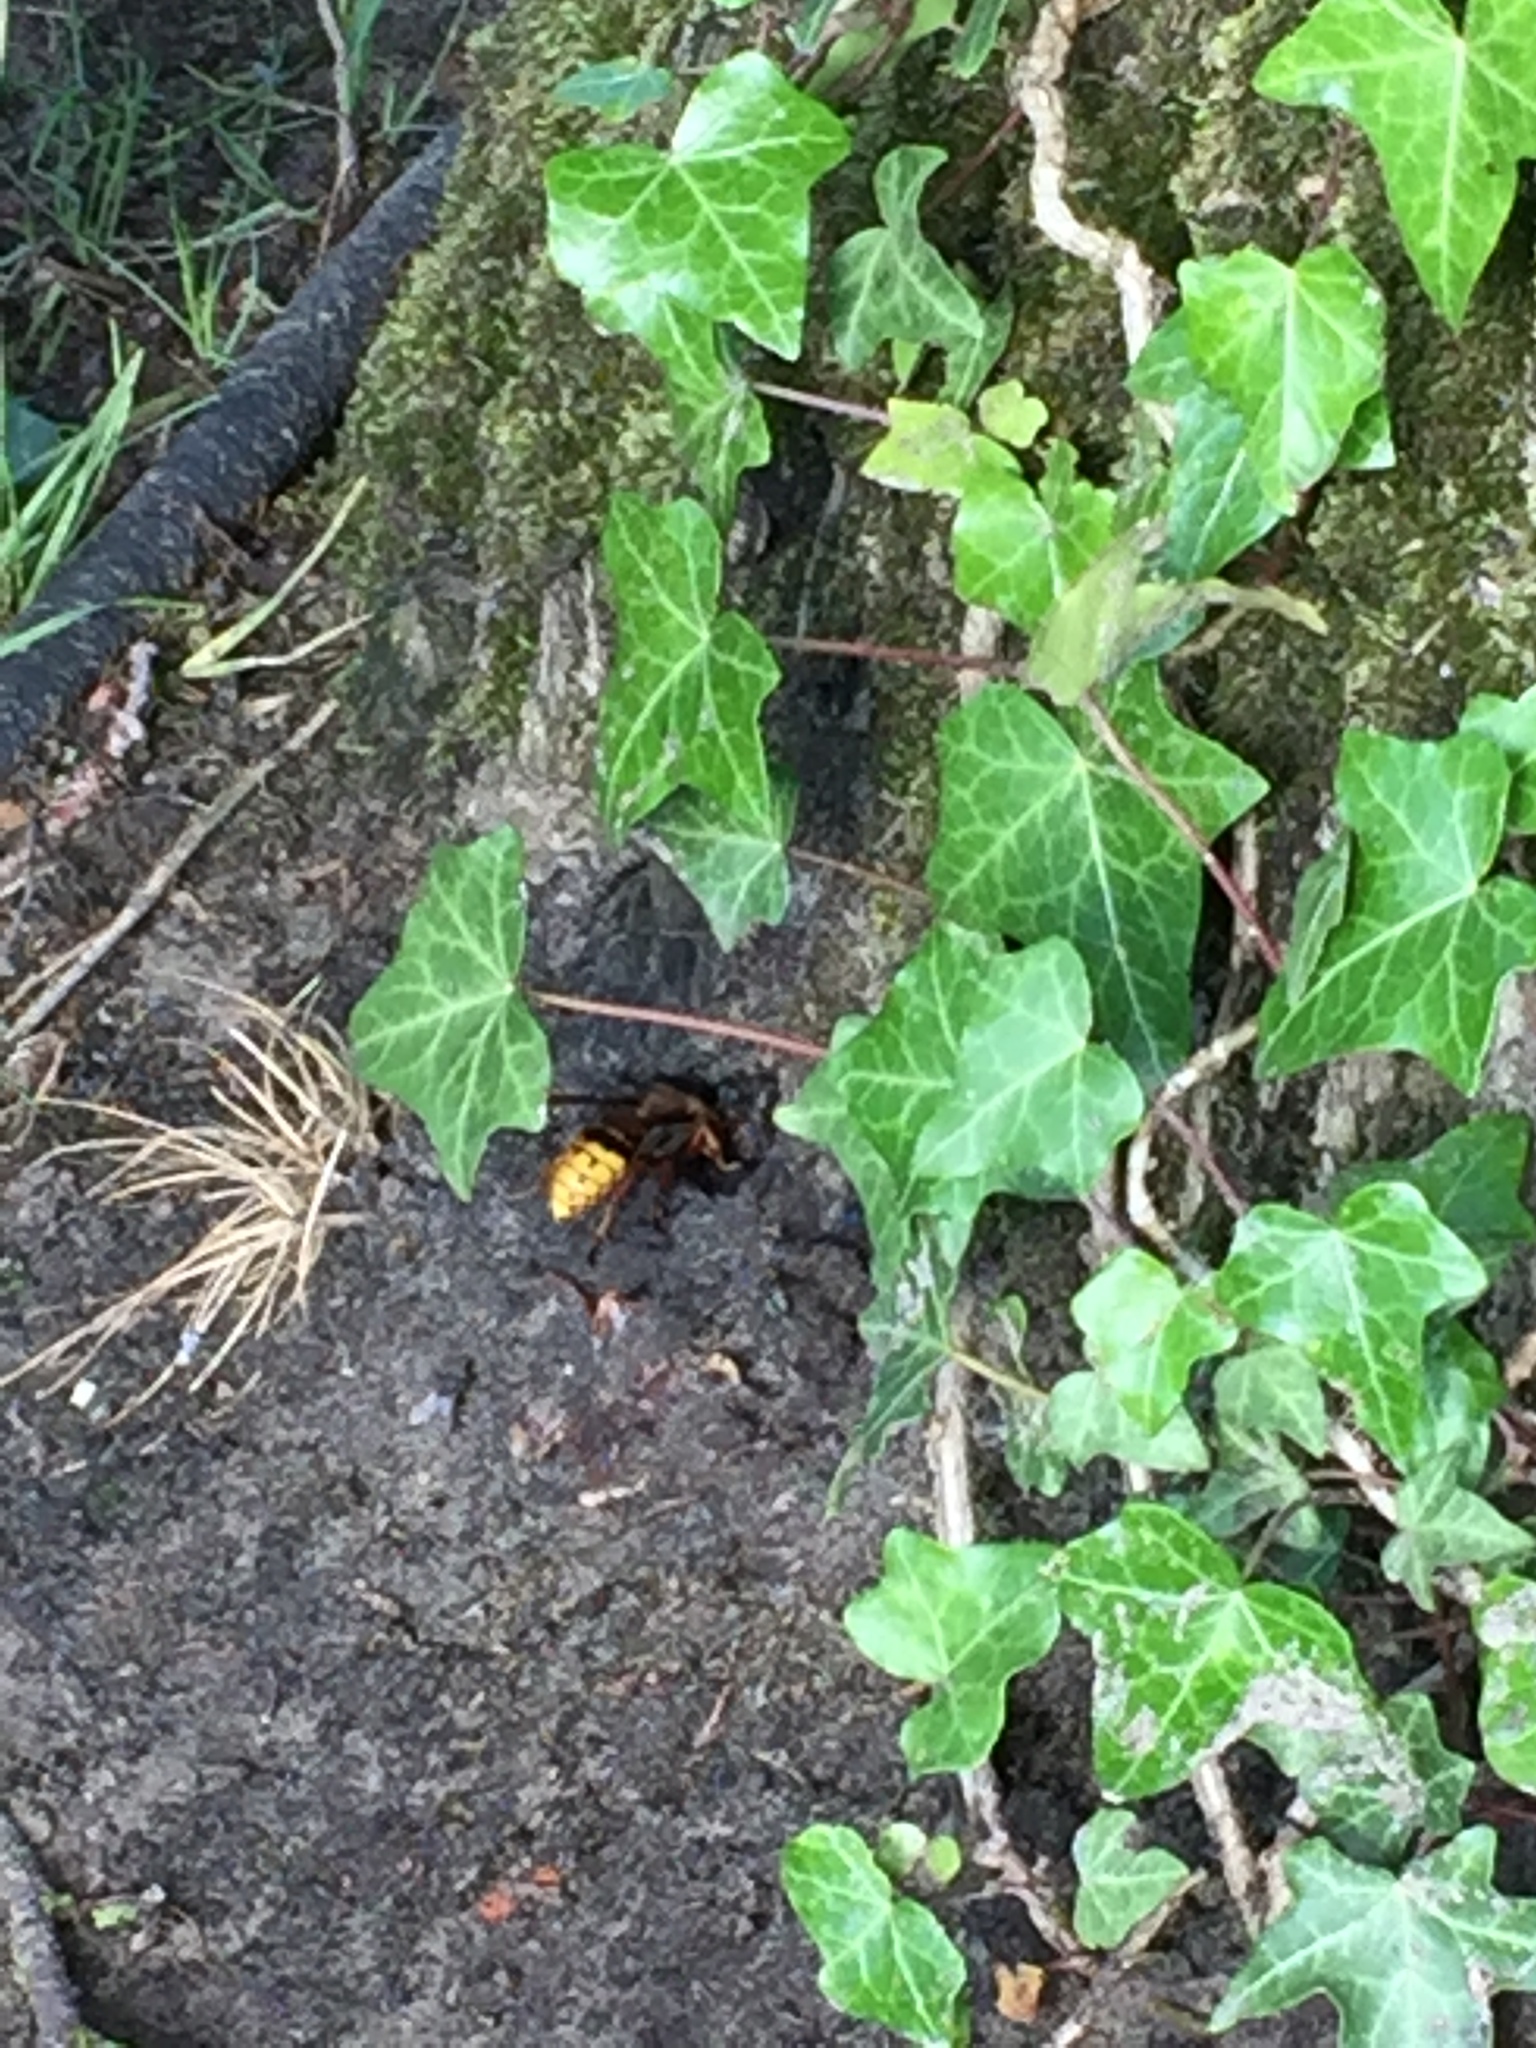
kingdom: Animalia
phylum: Arthropoda
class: Insecta
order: Hymenoptera
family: Vespidae
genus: Vespa
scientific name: Vespa crabro
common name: Hornet
